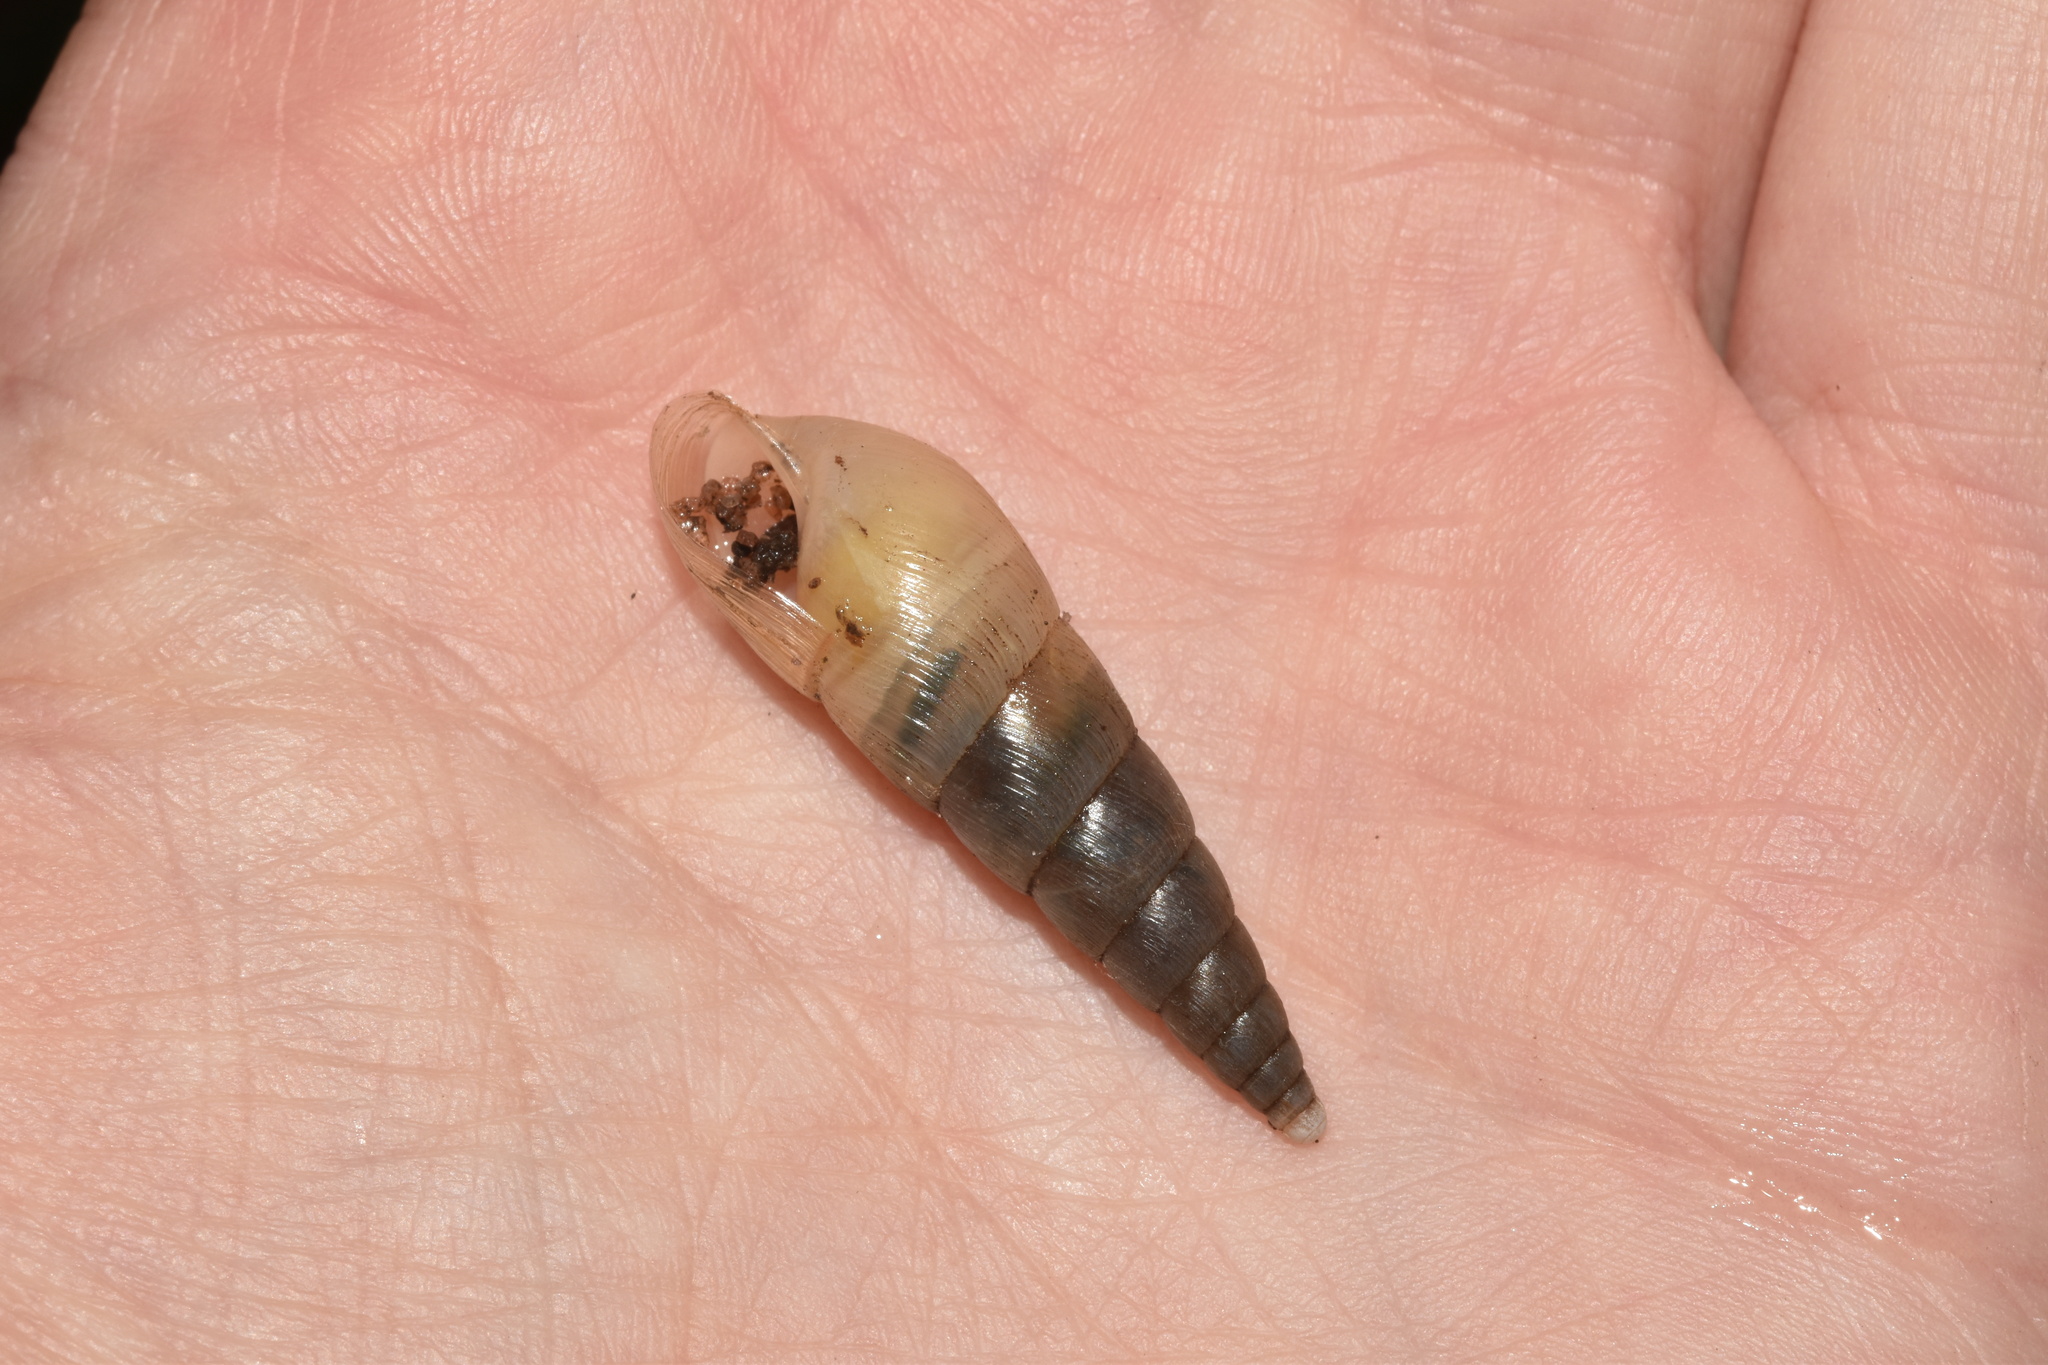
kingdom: Animalia
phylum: Mollusca
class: Gastropoda
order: Stylommatophora
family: Achatinidae
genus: Euonyma
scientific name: Euonyma natalensis
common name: Ribbed awl snail
